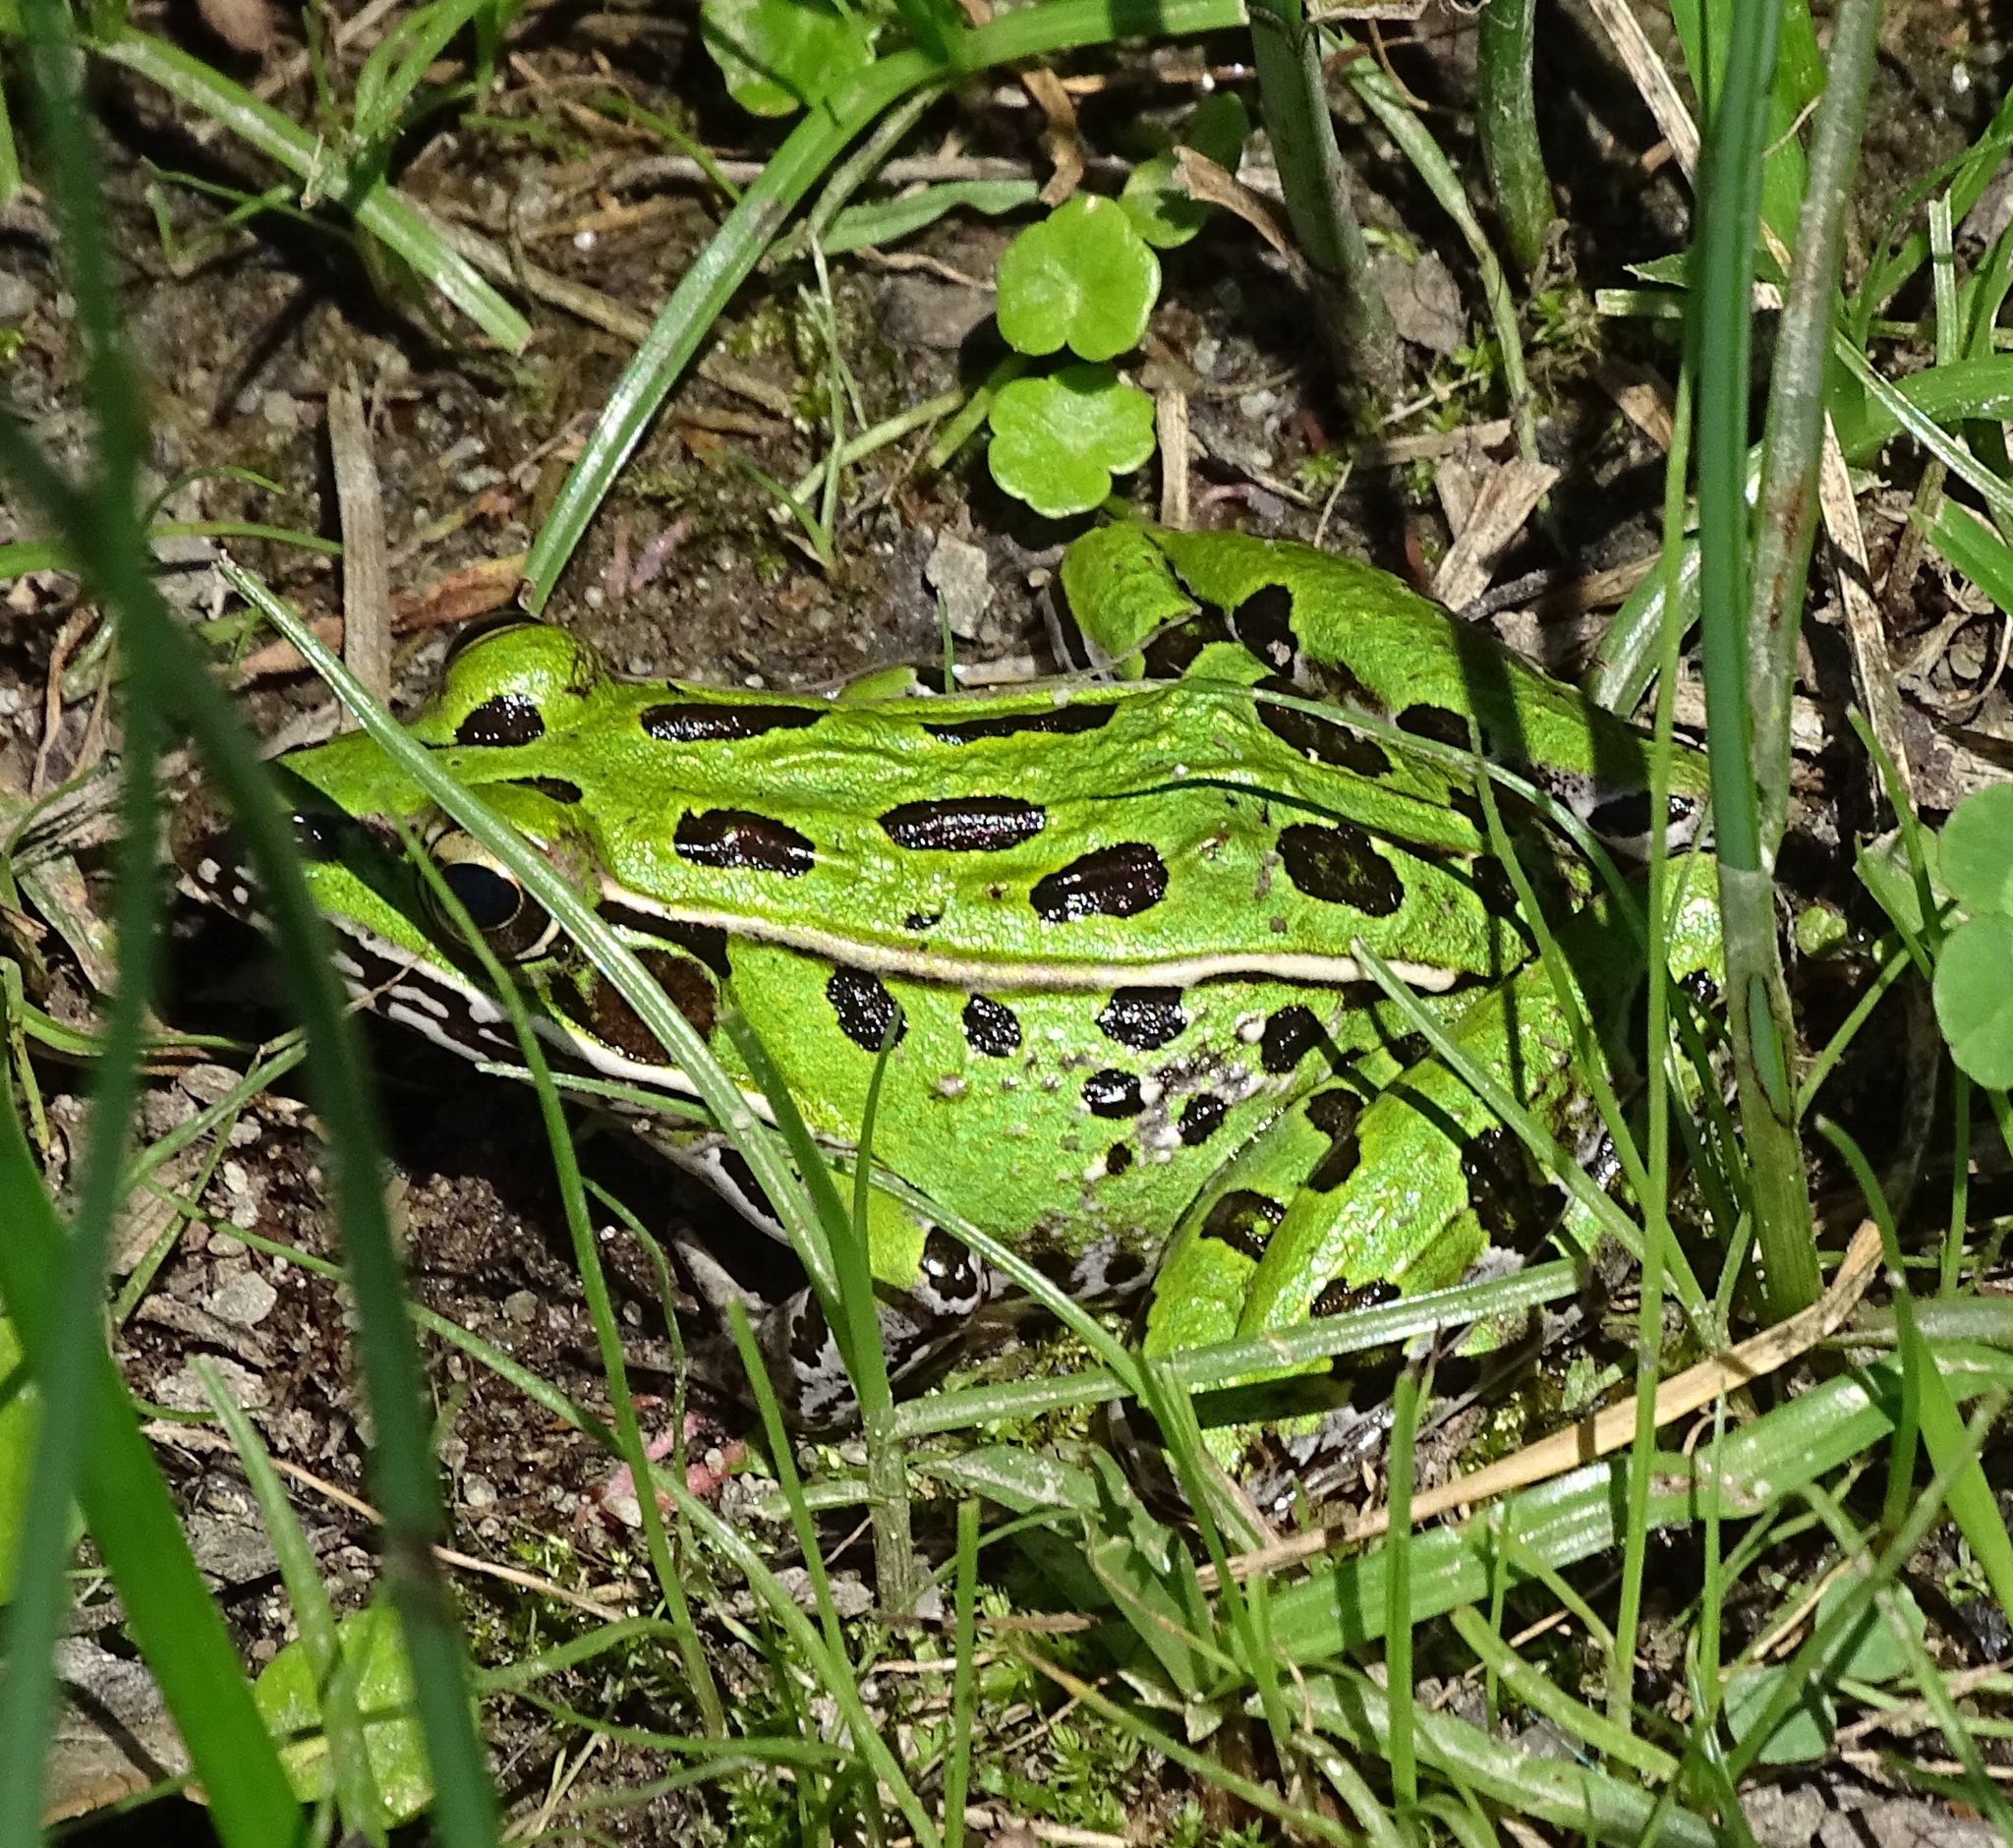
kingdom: Animalia
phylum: Chordata
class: Amphibia
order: Anura
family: Ranidae
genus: Lithobates
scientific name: Lithobates sphenocephalus
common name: Southern leopard frog
